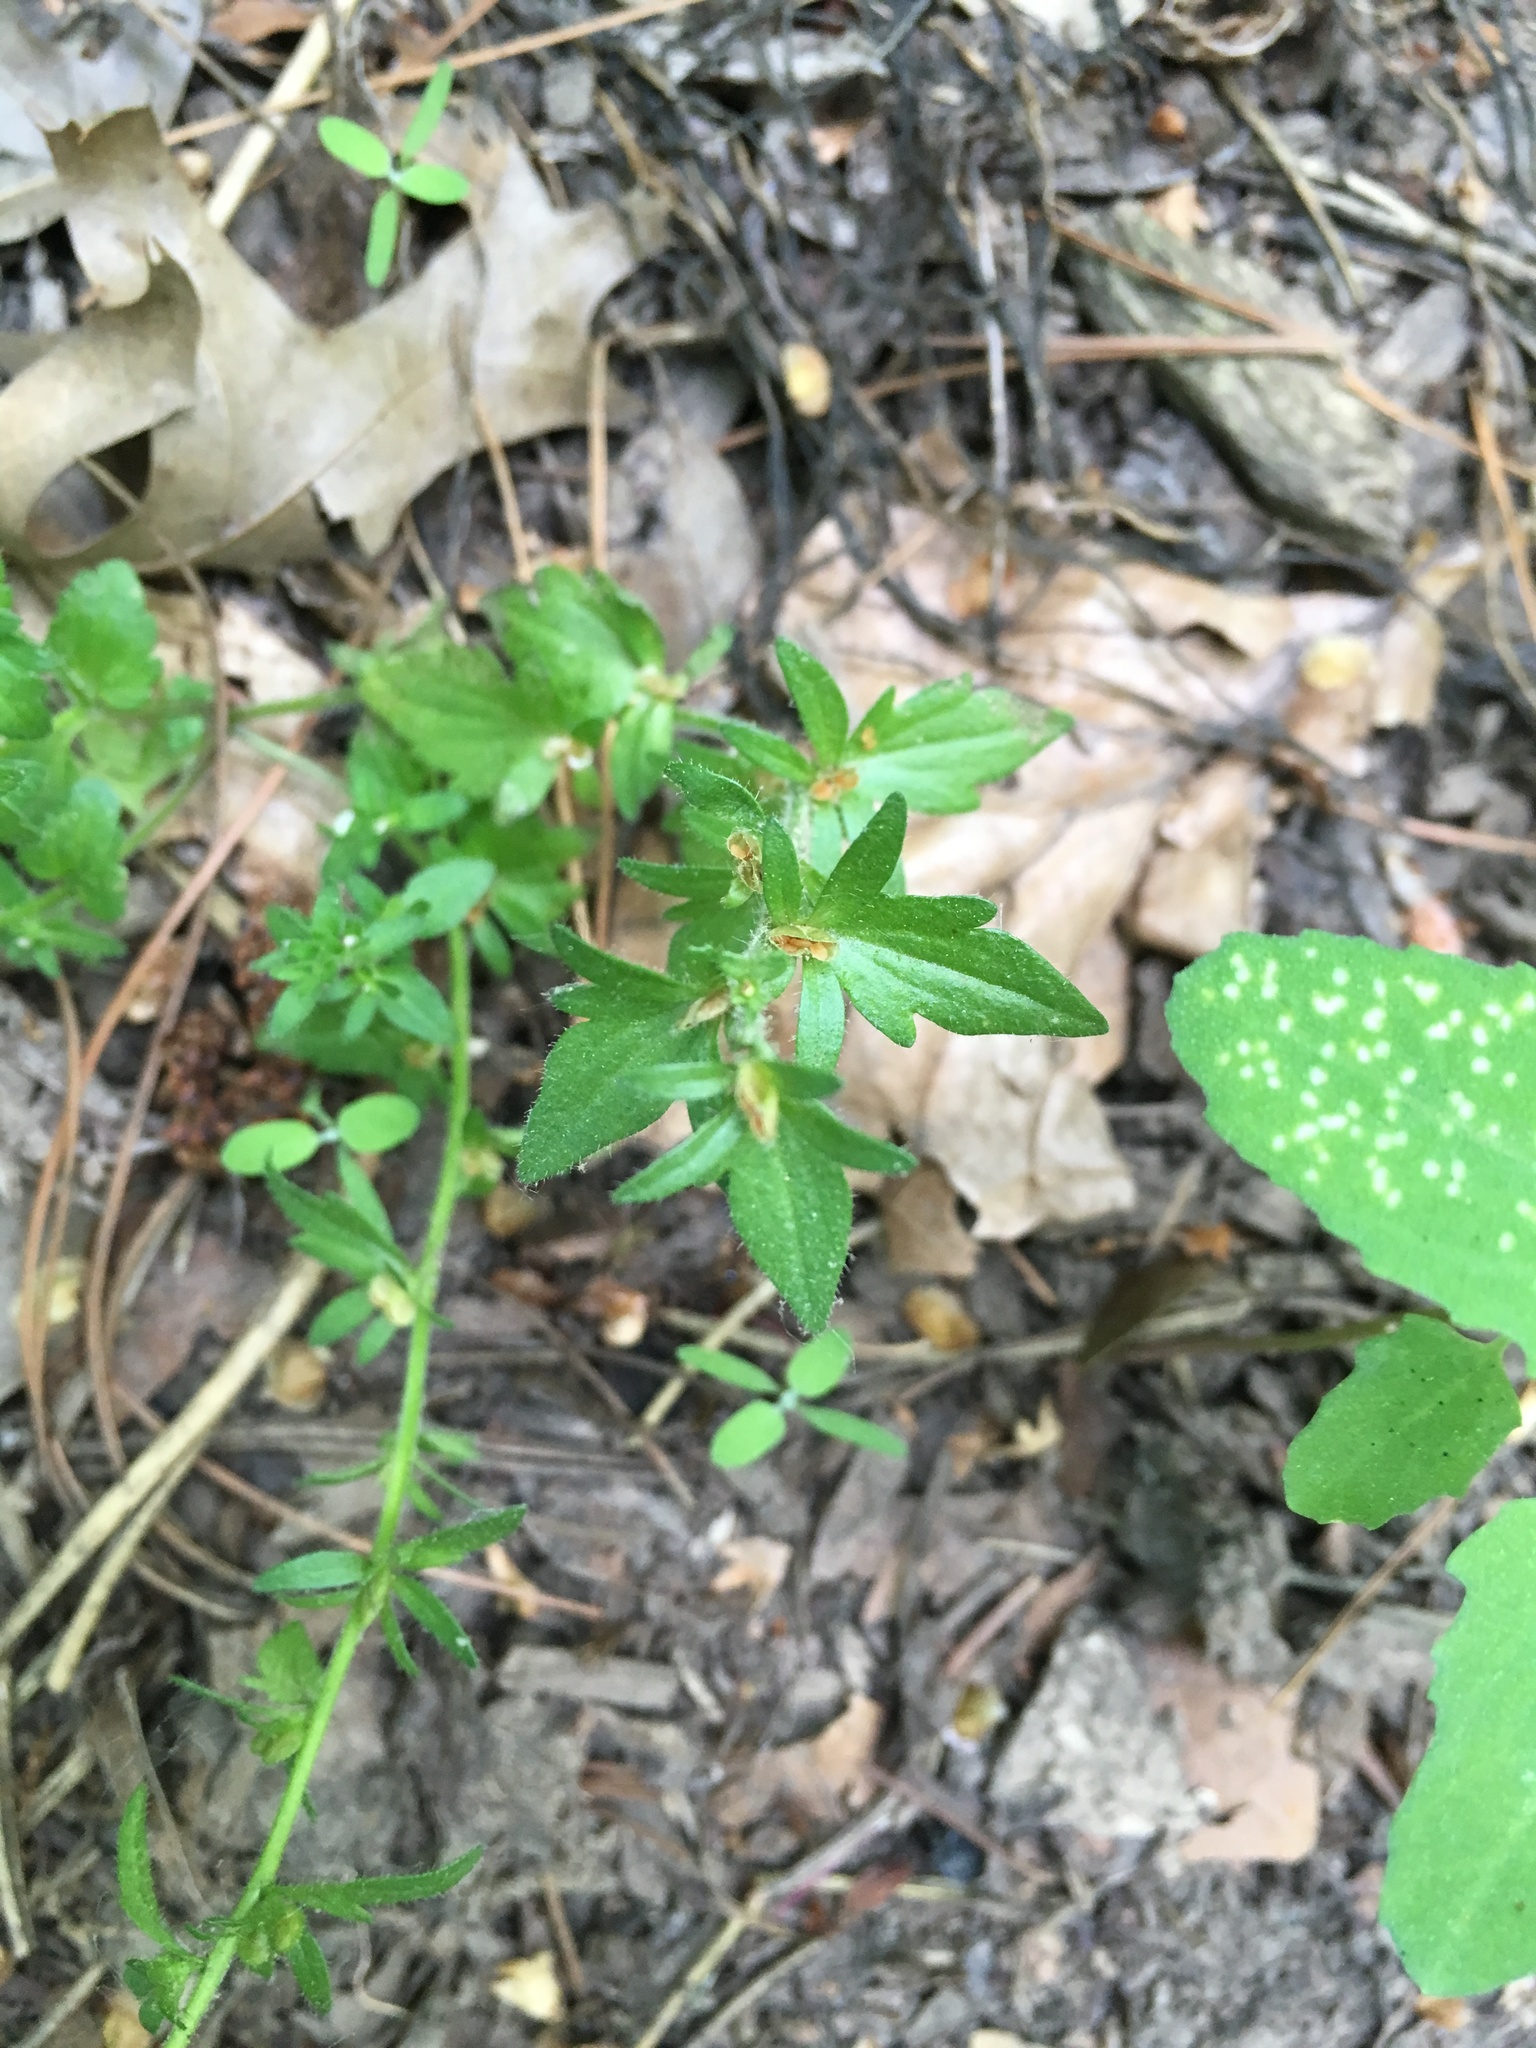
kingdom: Plantae
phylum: Tracheophyta
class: Magnoliopsida
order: Lamiales
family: Plantaginaceae
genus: Veronica
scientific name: Veronica arvensis
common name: Corn speedwell
